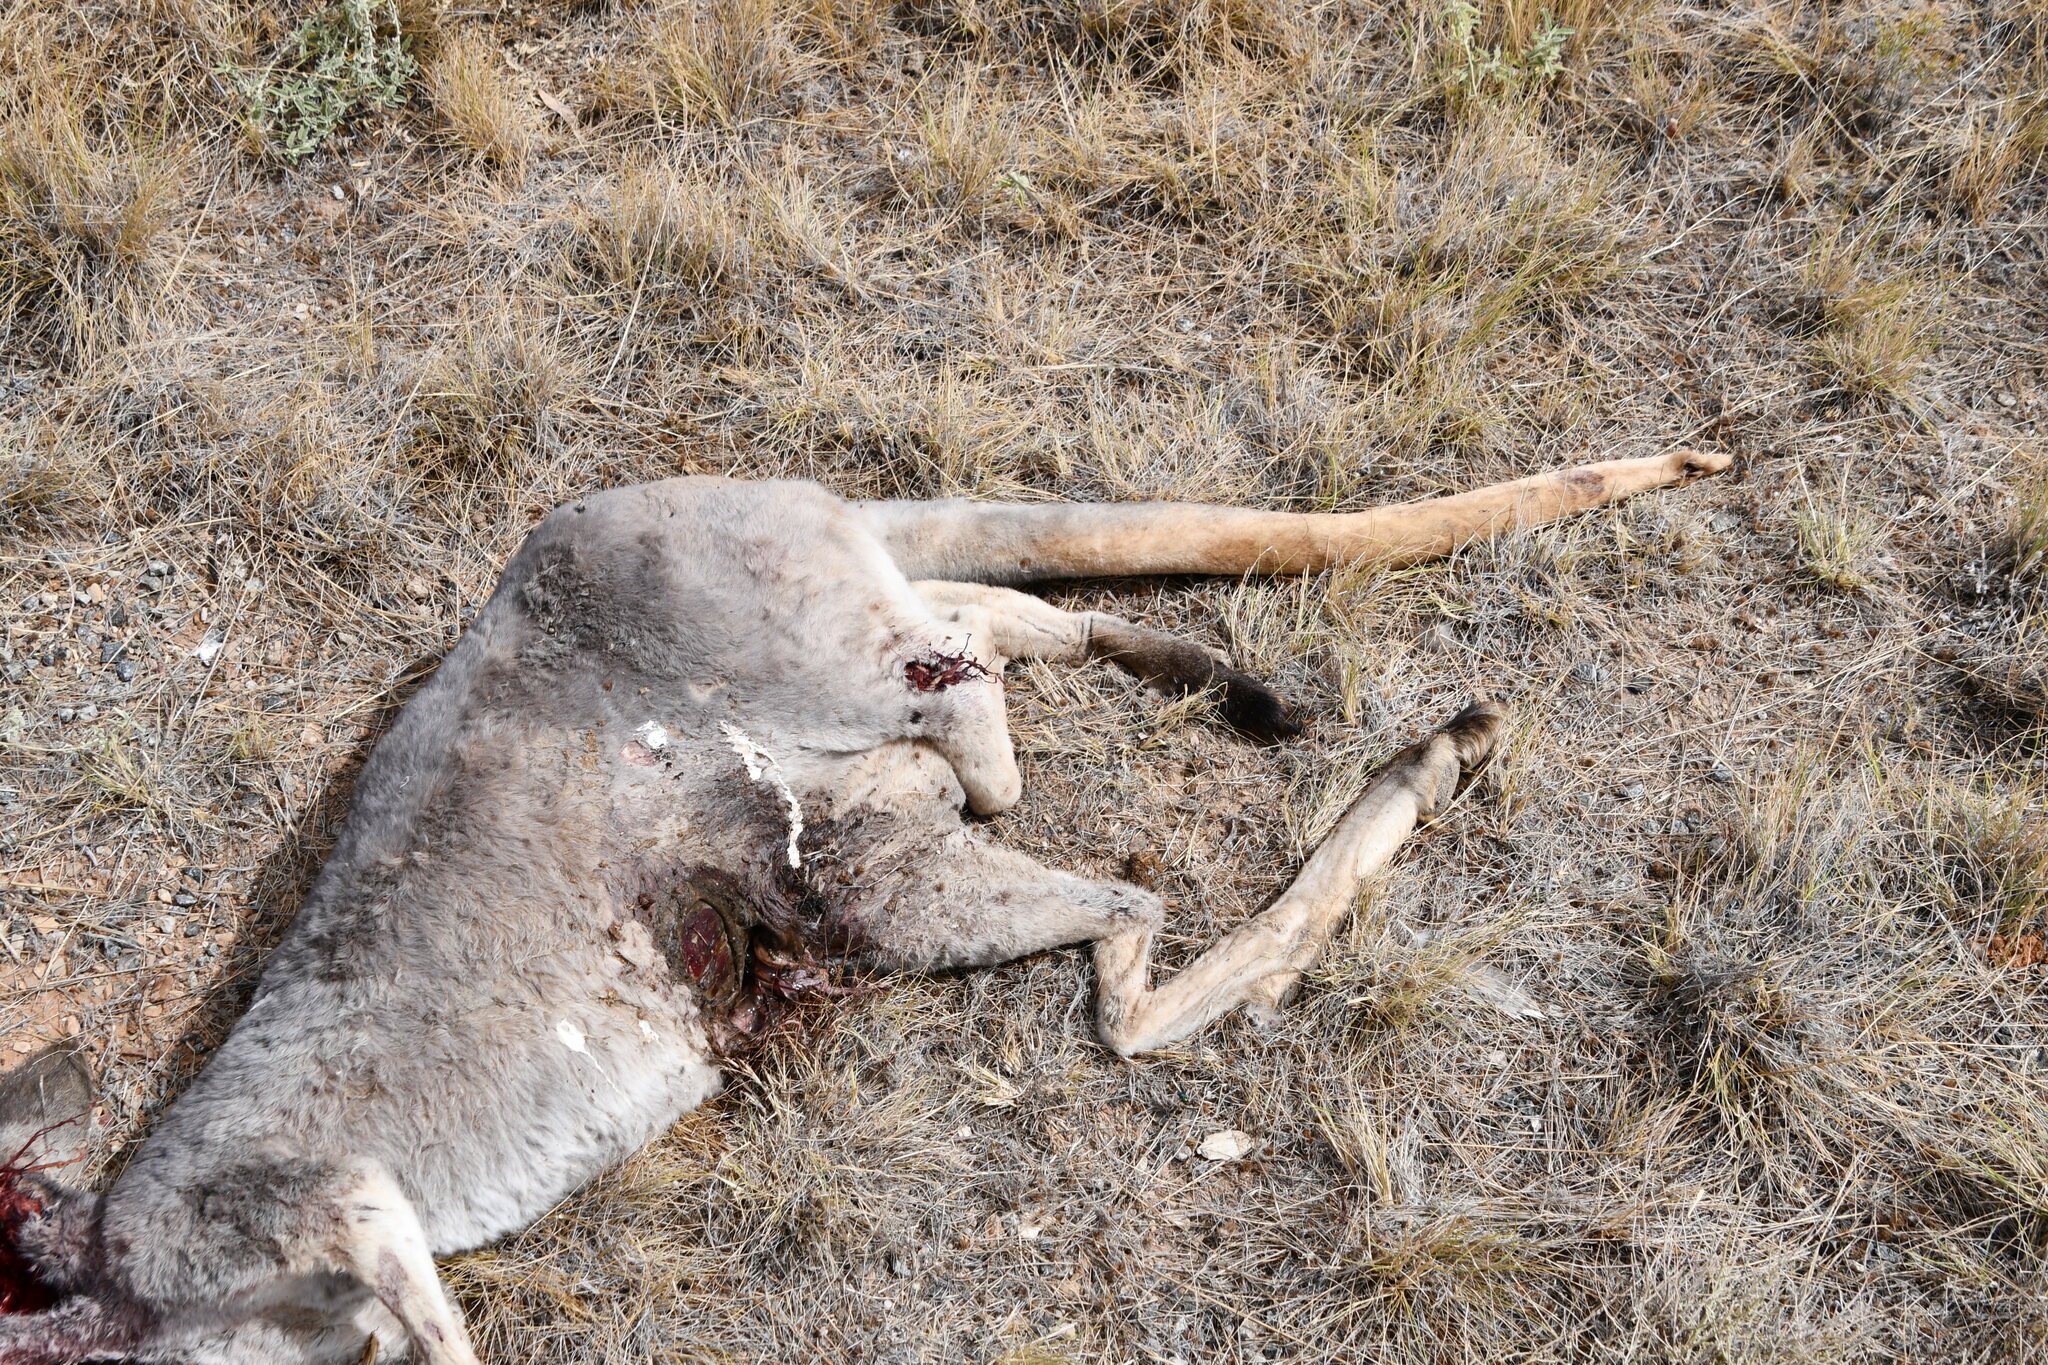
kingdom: Animalia
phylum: Chordata
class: Mammalia
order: Diprotodontia
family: Macropodidae
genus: Macropus
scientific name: Macropus rufus
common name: Red kangaroo
